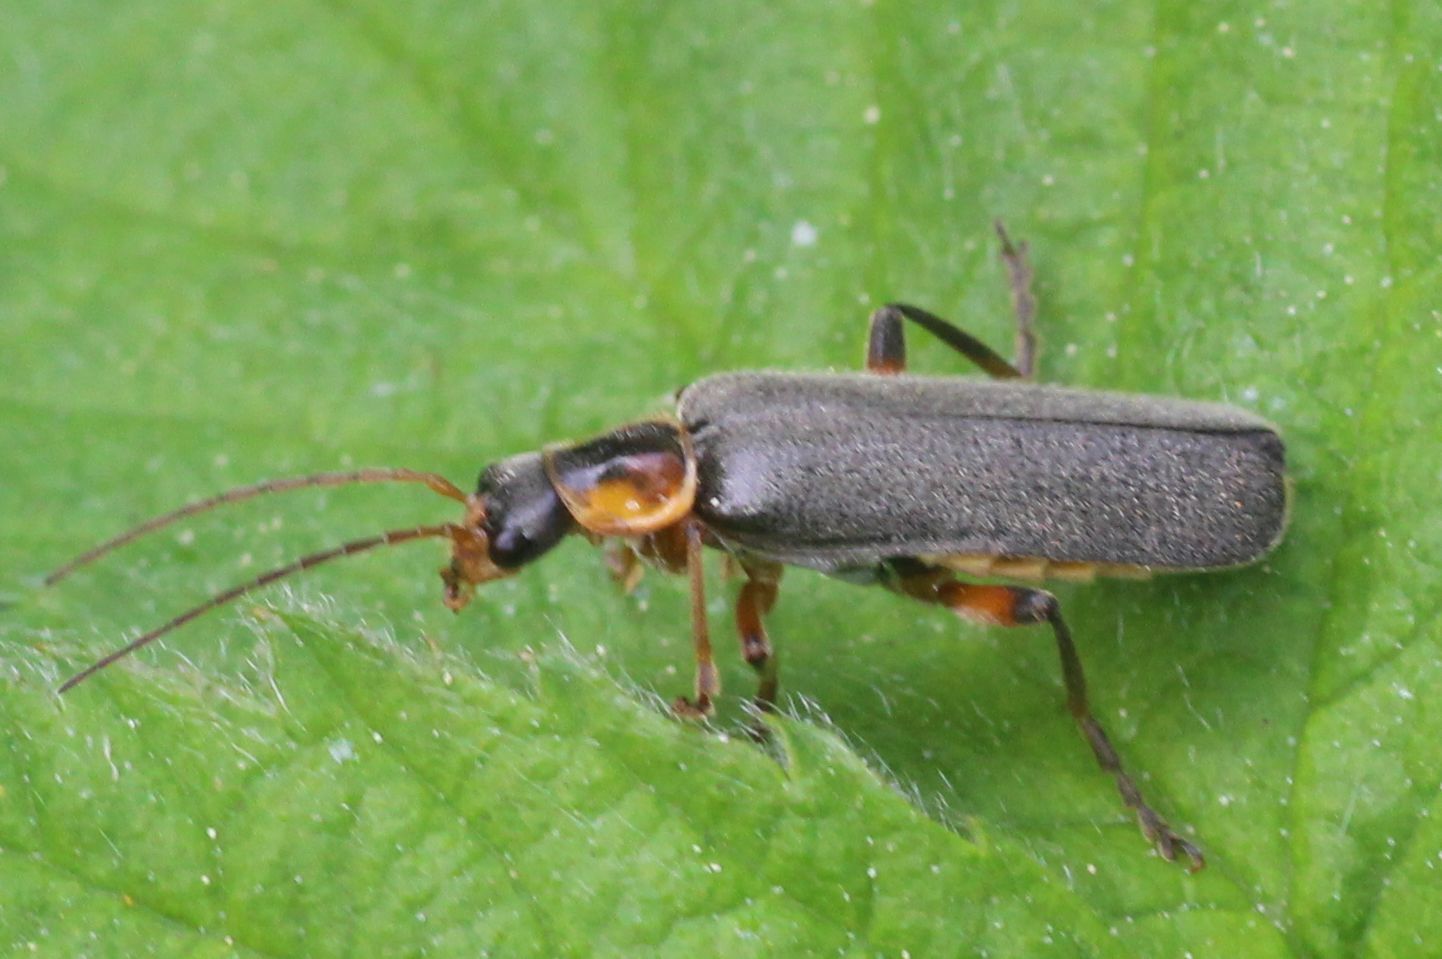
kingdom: Animalia
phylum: Arthropoda
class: Insecta
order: Coleoptera
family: Cantharidae
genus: Cantharis
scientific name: Cantharis nigricans
